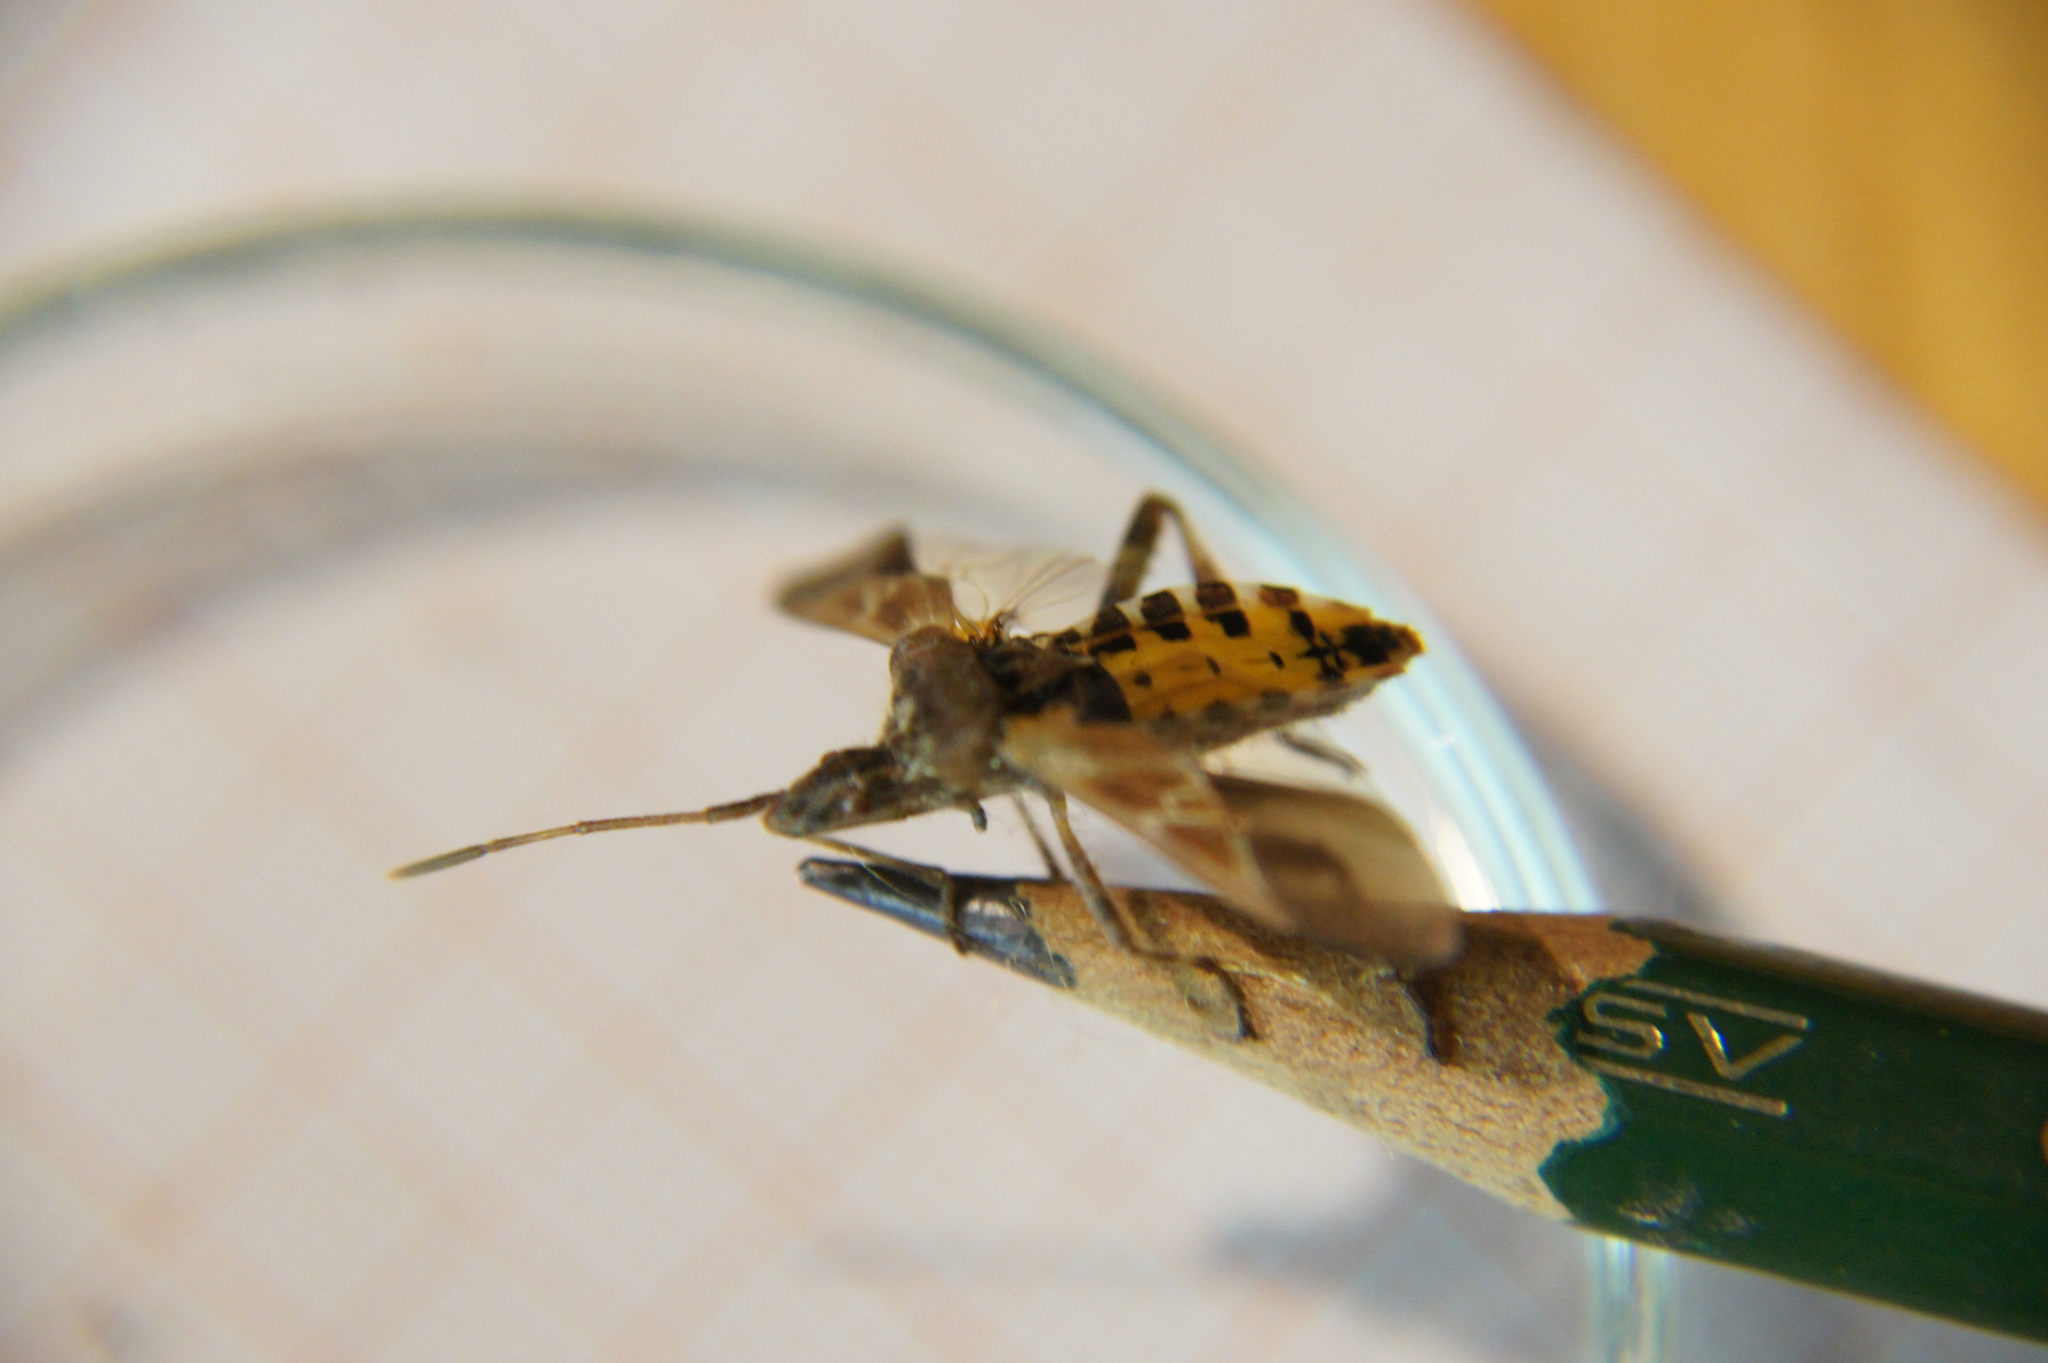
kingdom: Animalia
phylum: Arthropoda
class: Insecta
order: Hemiptera
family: Coreidae
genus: Leptoglossus
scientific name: Leptoglossus occidentalis
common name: Western conifer-seed bug
